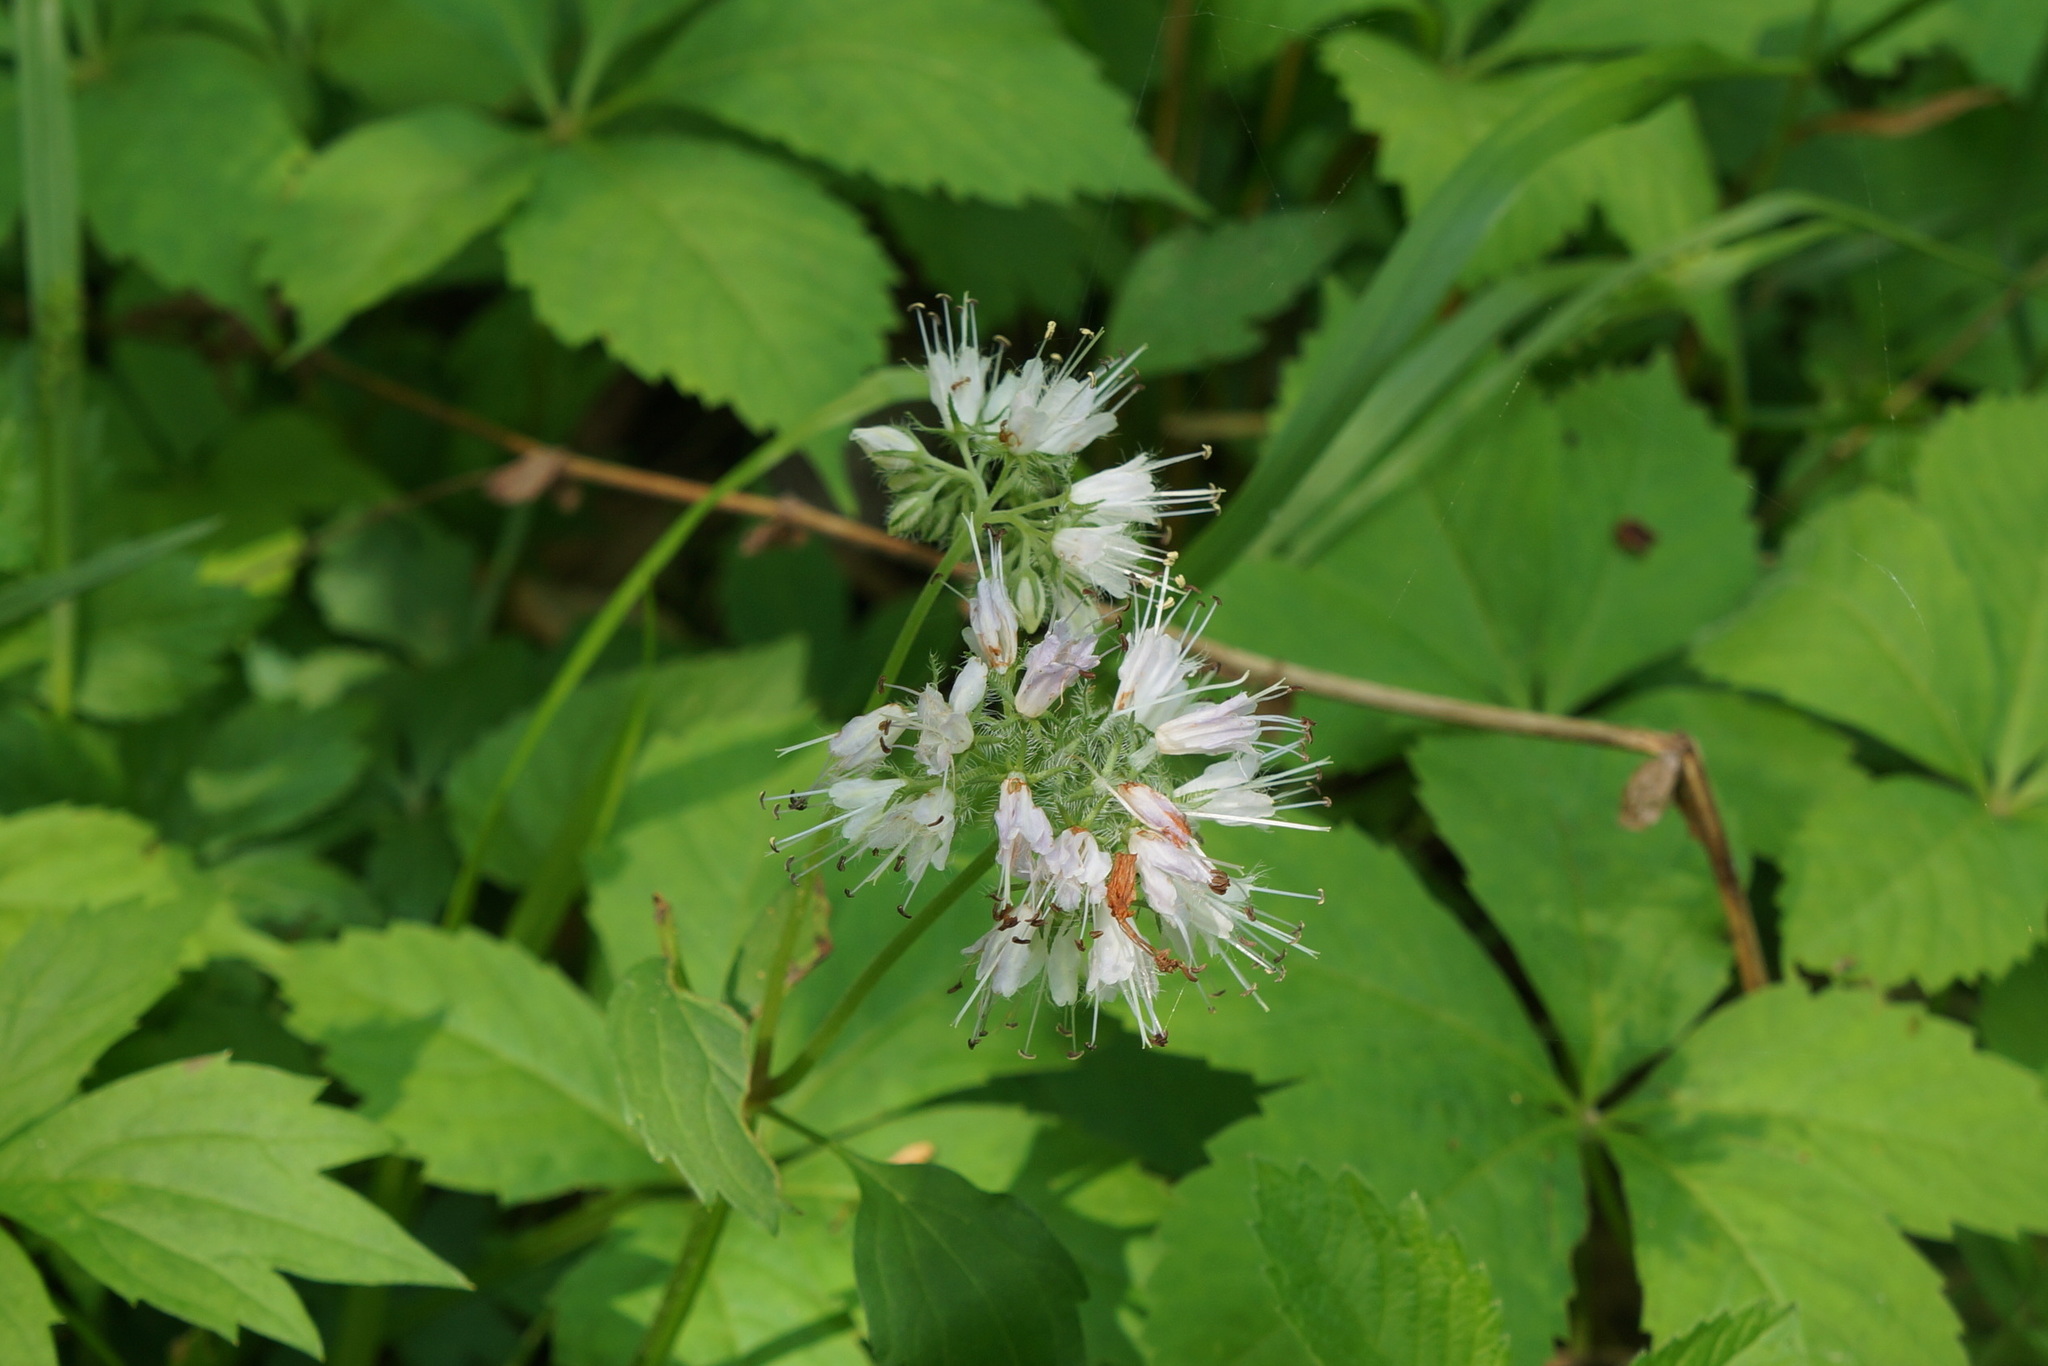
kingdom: Plantae
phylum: Tracheophyta
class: Magnoliopsida
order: Boraginales
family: Hydrophyllaceae
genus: Hydrophyllum
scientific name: Hydrophyllum virginianum
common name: Virginia waterleaf
